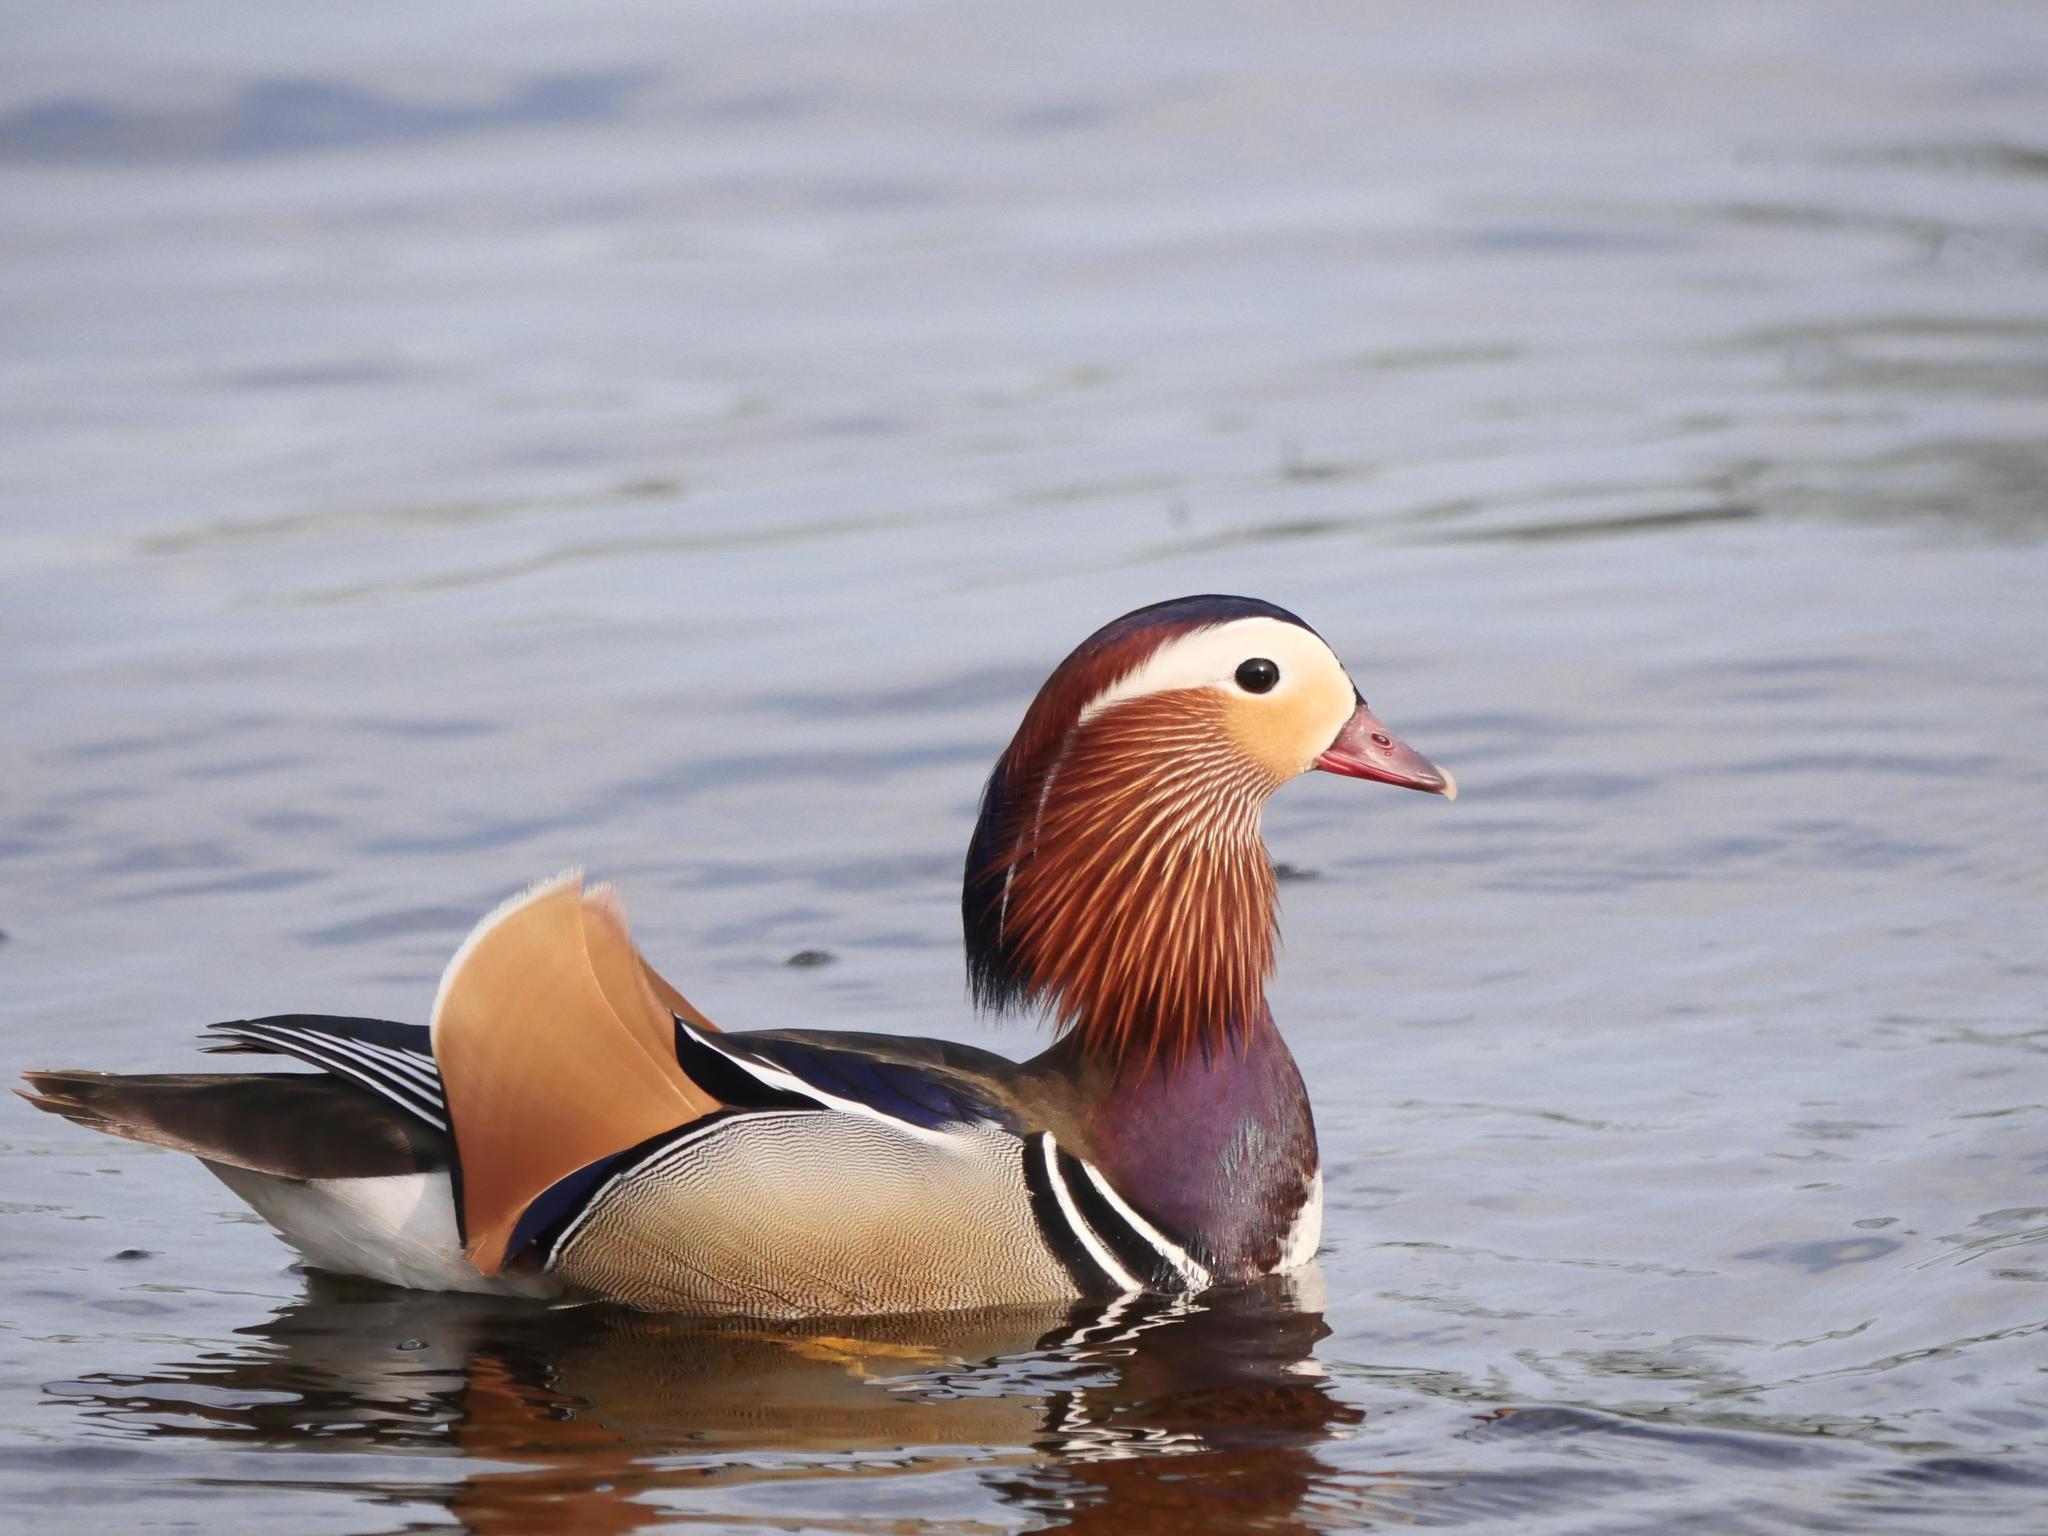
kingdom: Animalia
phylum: Chordata
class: Aves
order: Anseriformes
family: Anatidae
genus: Aix
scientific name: Aix galericulata
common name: Mandarin duck
